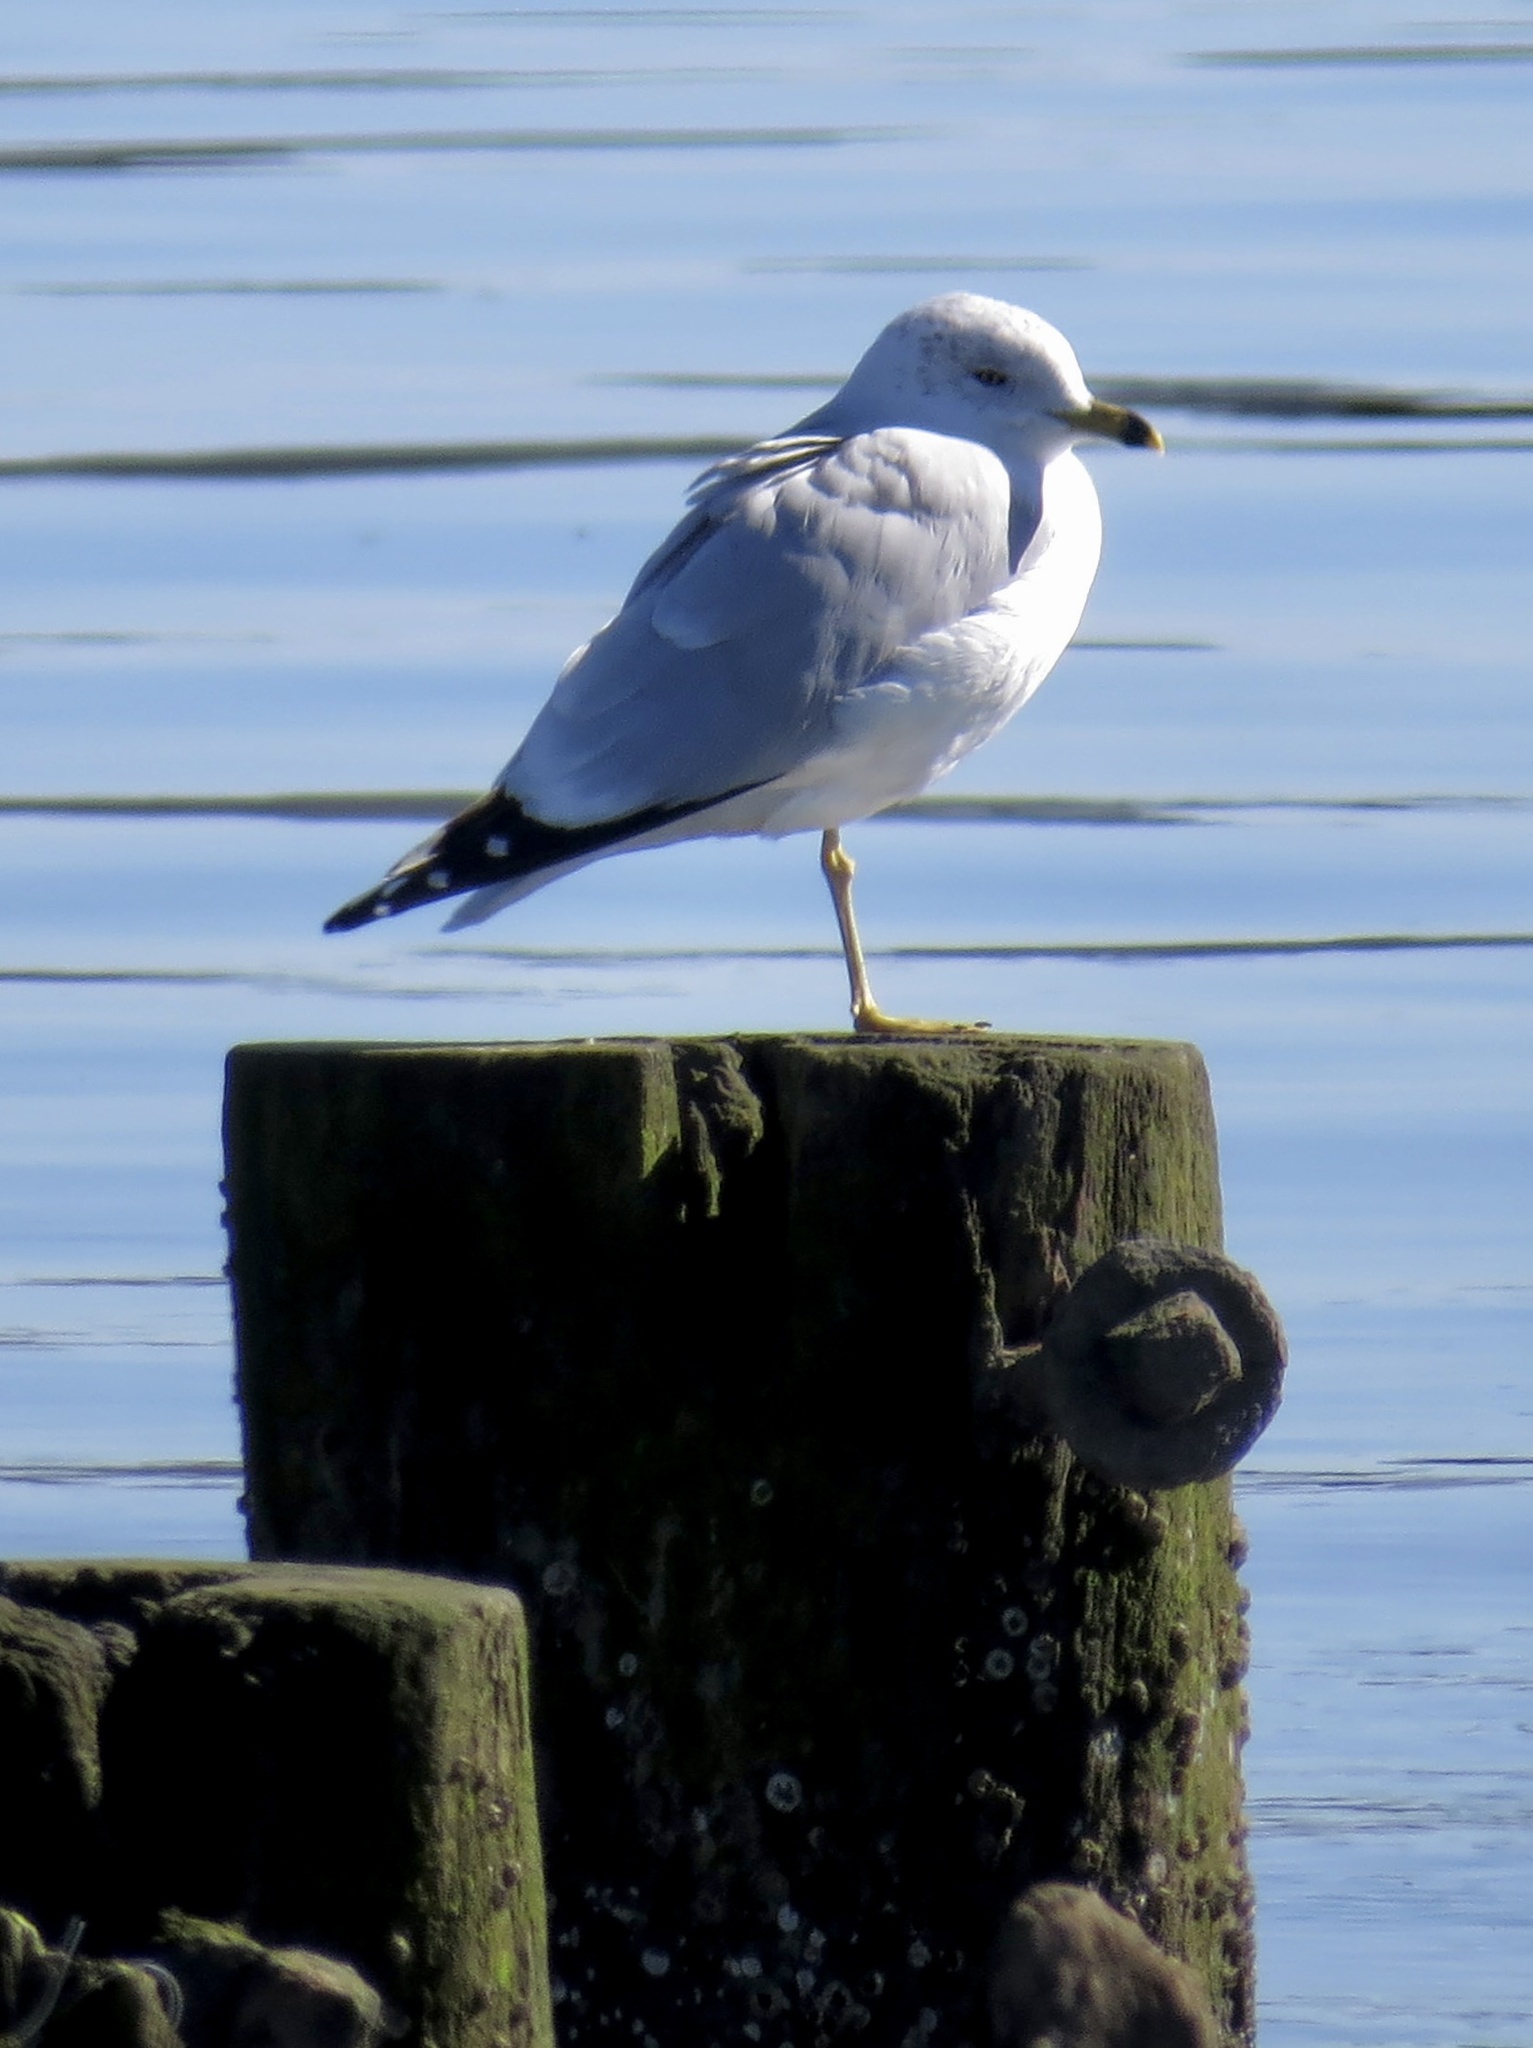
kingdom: Animalia
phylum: Chordata
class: Aves
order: Charadriiformes
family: Laridae
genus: Larus
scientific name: Larus delawarensis
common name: Ring-billed gull
